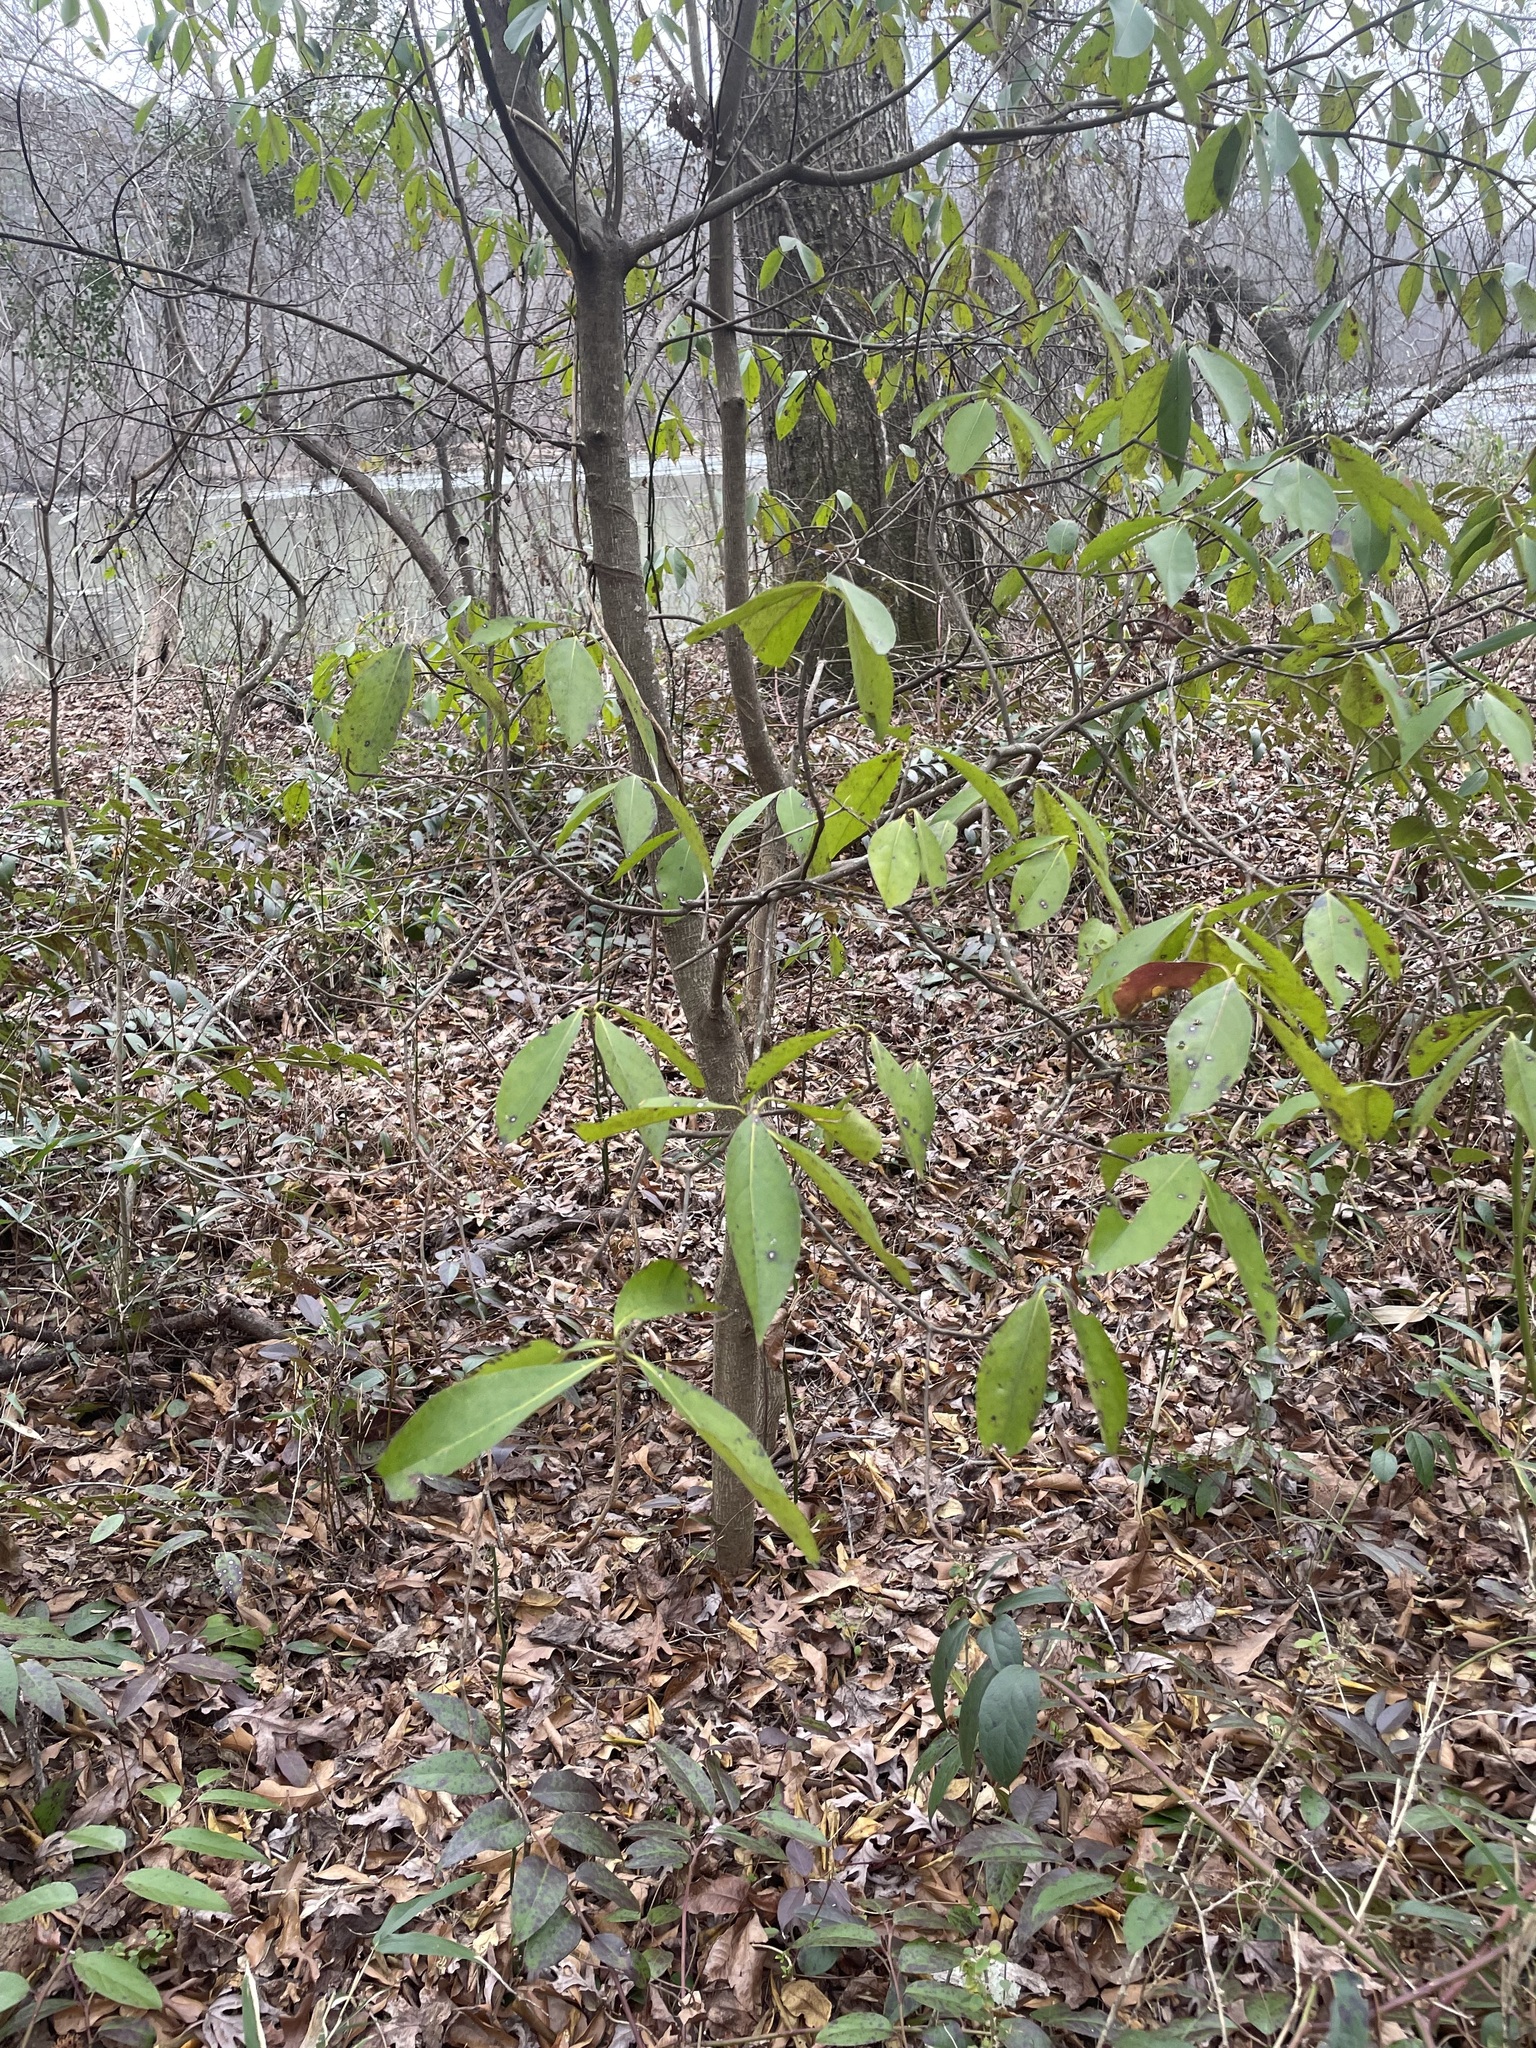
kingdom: Plantae
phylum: Tracheophyta
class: Magnoliopsida
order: Ericales
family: Symplocaceae
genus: Symplocos
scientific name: Symplocos tinctoria
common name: Horse-sugar
